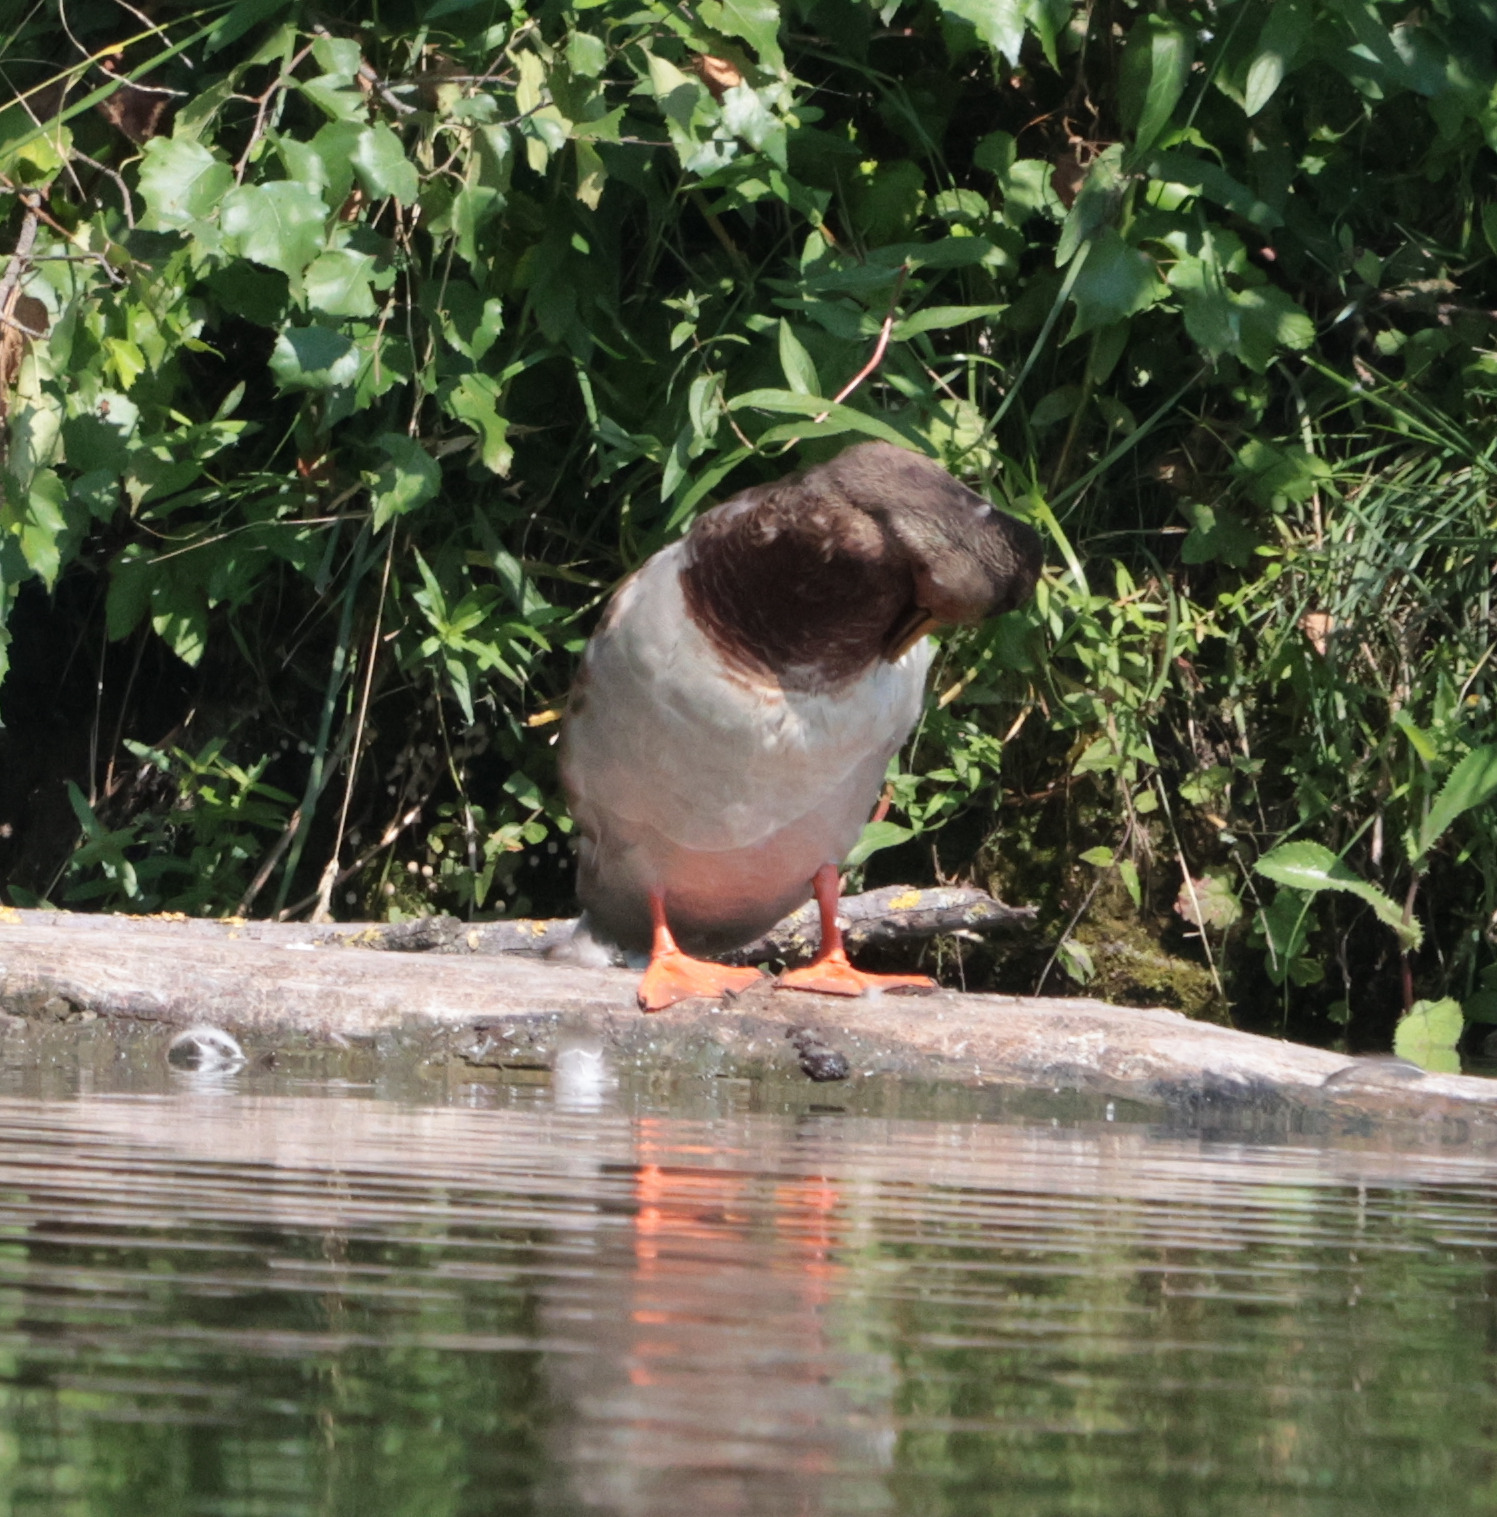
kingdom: Animalia
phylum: Chordata
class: Aves
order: Anseriformes
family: Anatidae
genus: Anas
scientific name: Anas platyrhynchos
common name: Mallard
